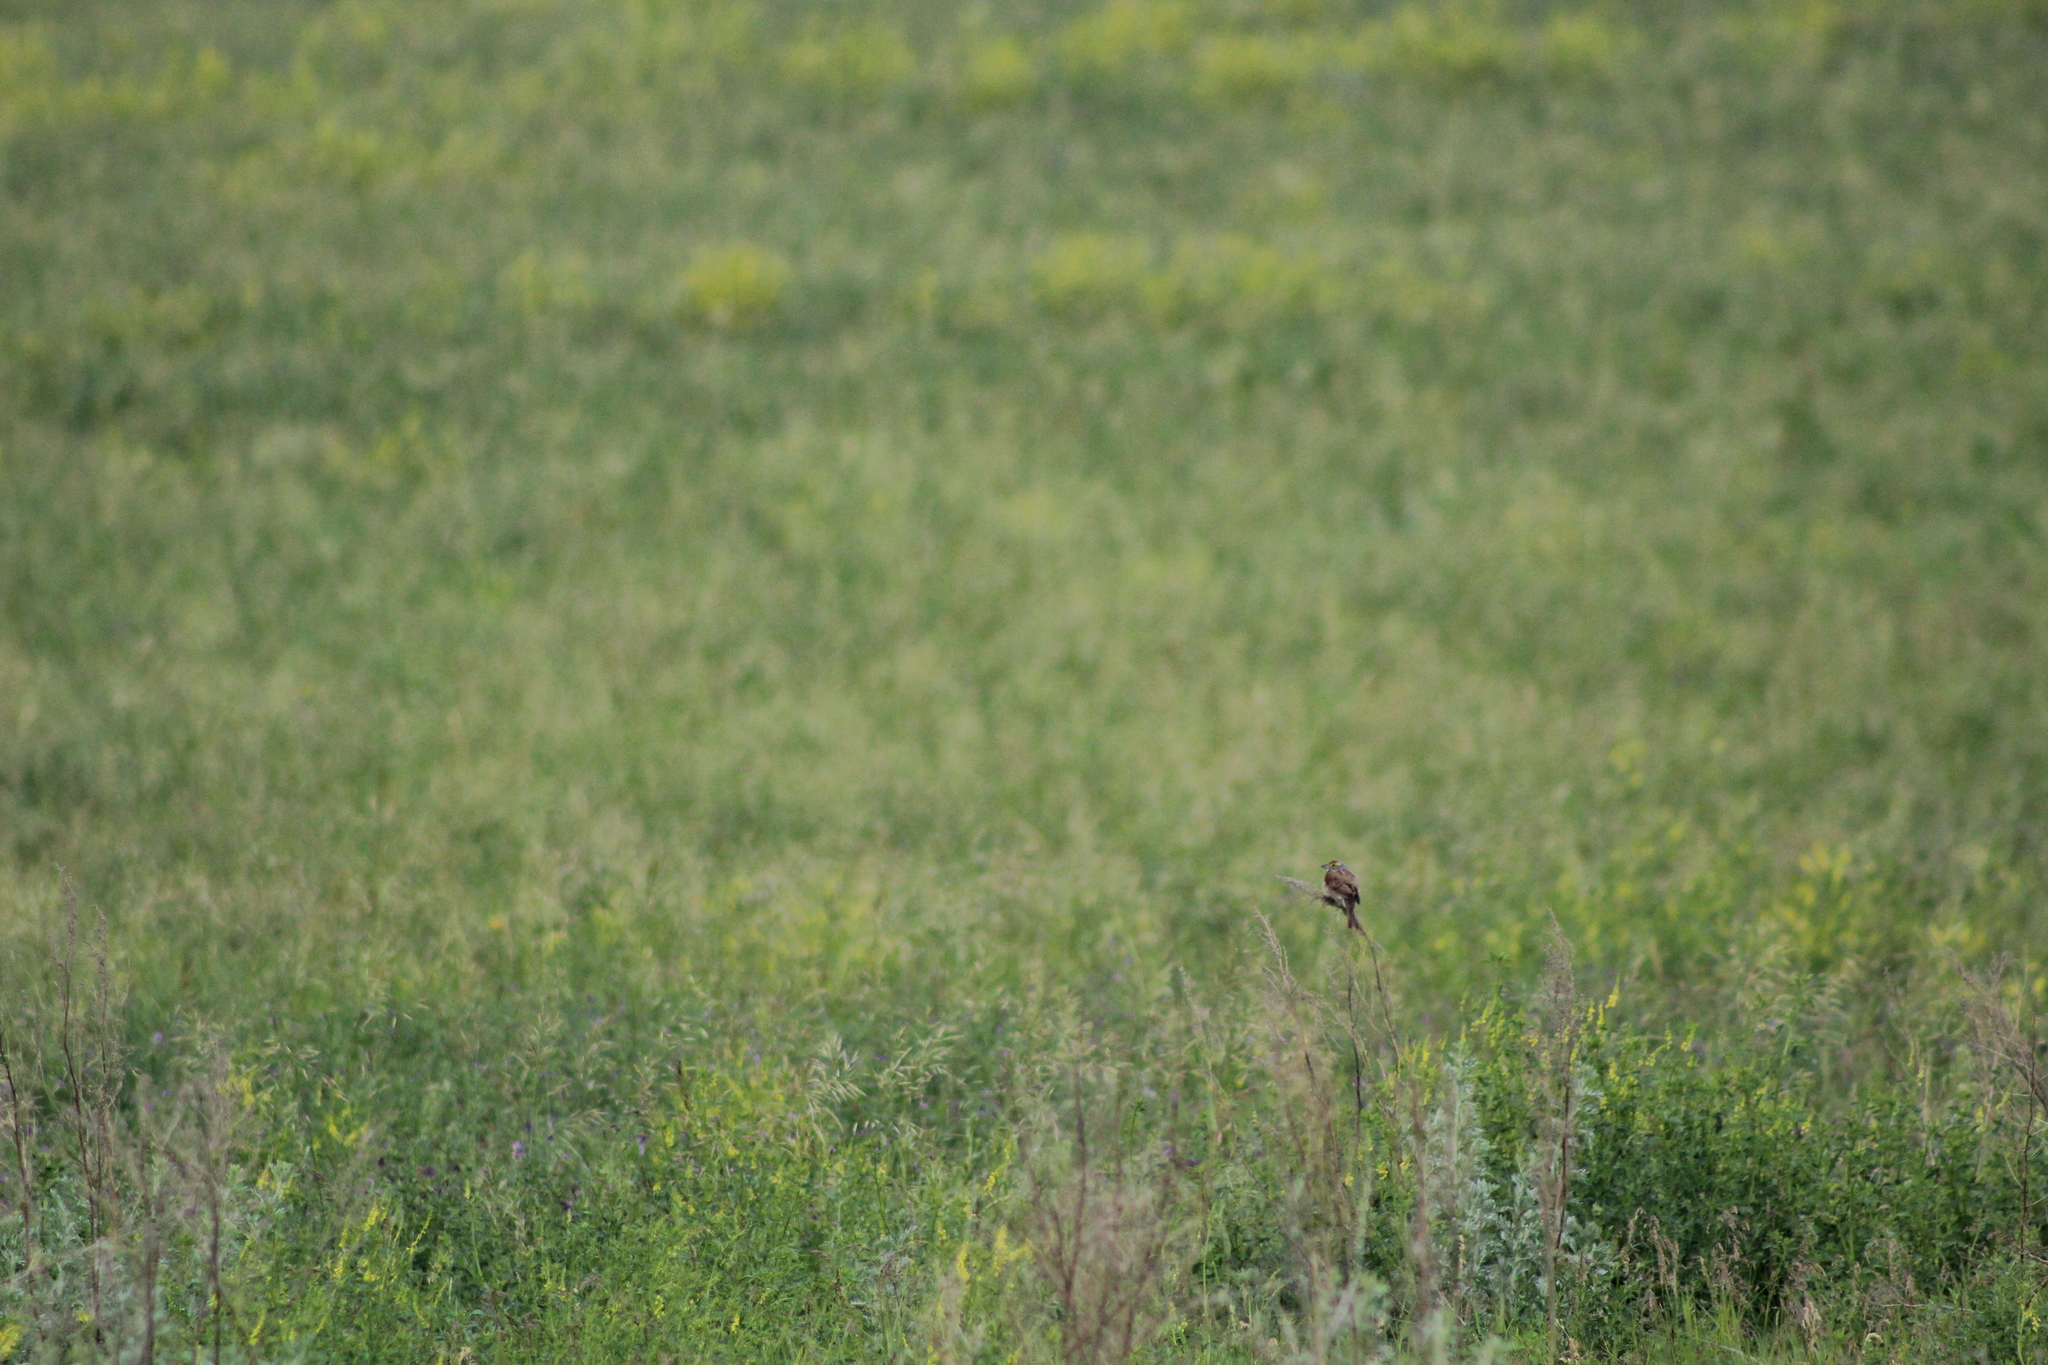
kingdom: Animalia
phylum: Chordata
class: Aves
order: Passeriformes
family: Cardinalidae
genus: Spiza
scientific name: Spiza americana
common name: Dickcissel
